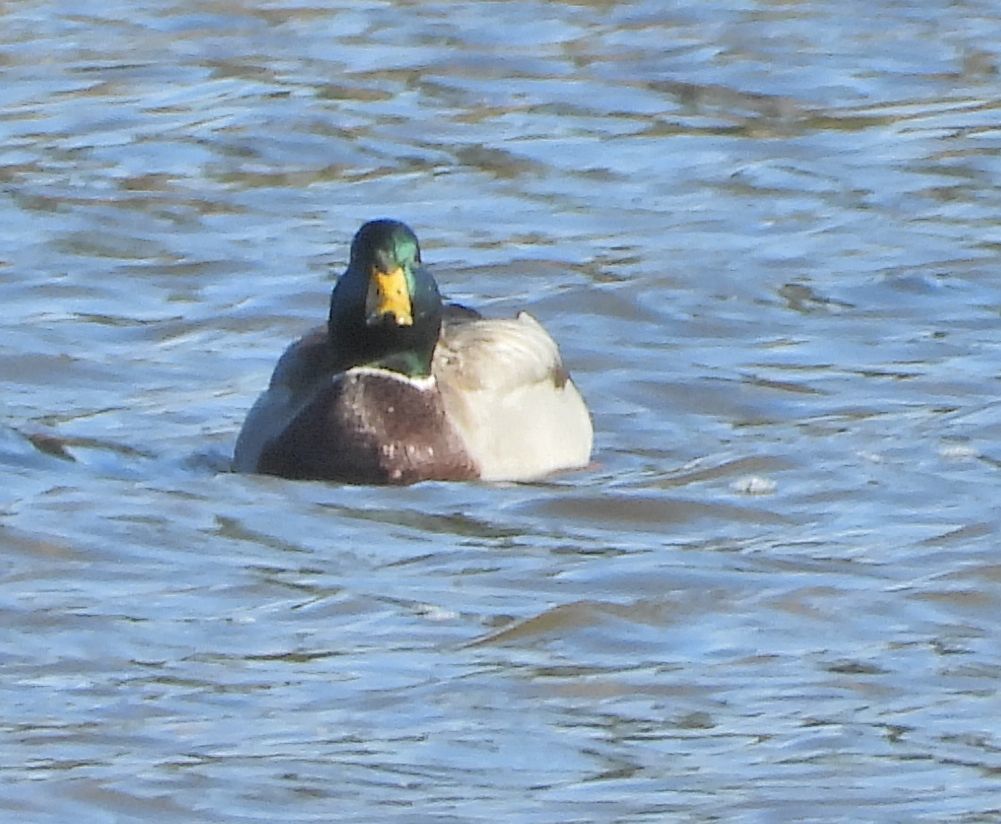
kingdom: Animalia
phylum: Chordata
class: Aves
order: Anseriformes
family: Anatidae
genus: Anas
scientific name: Anas platyrhynchos
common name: Mallard
